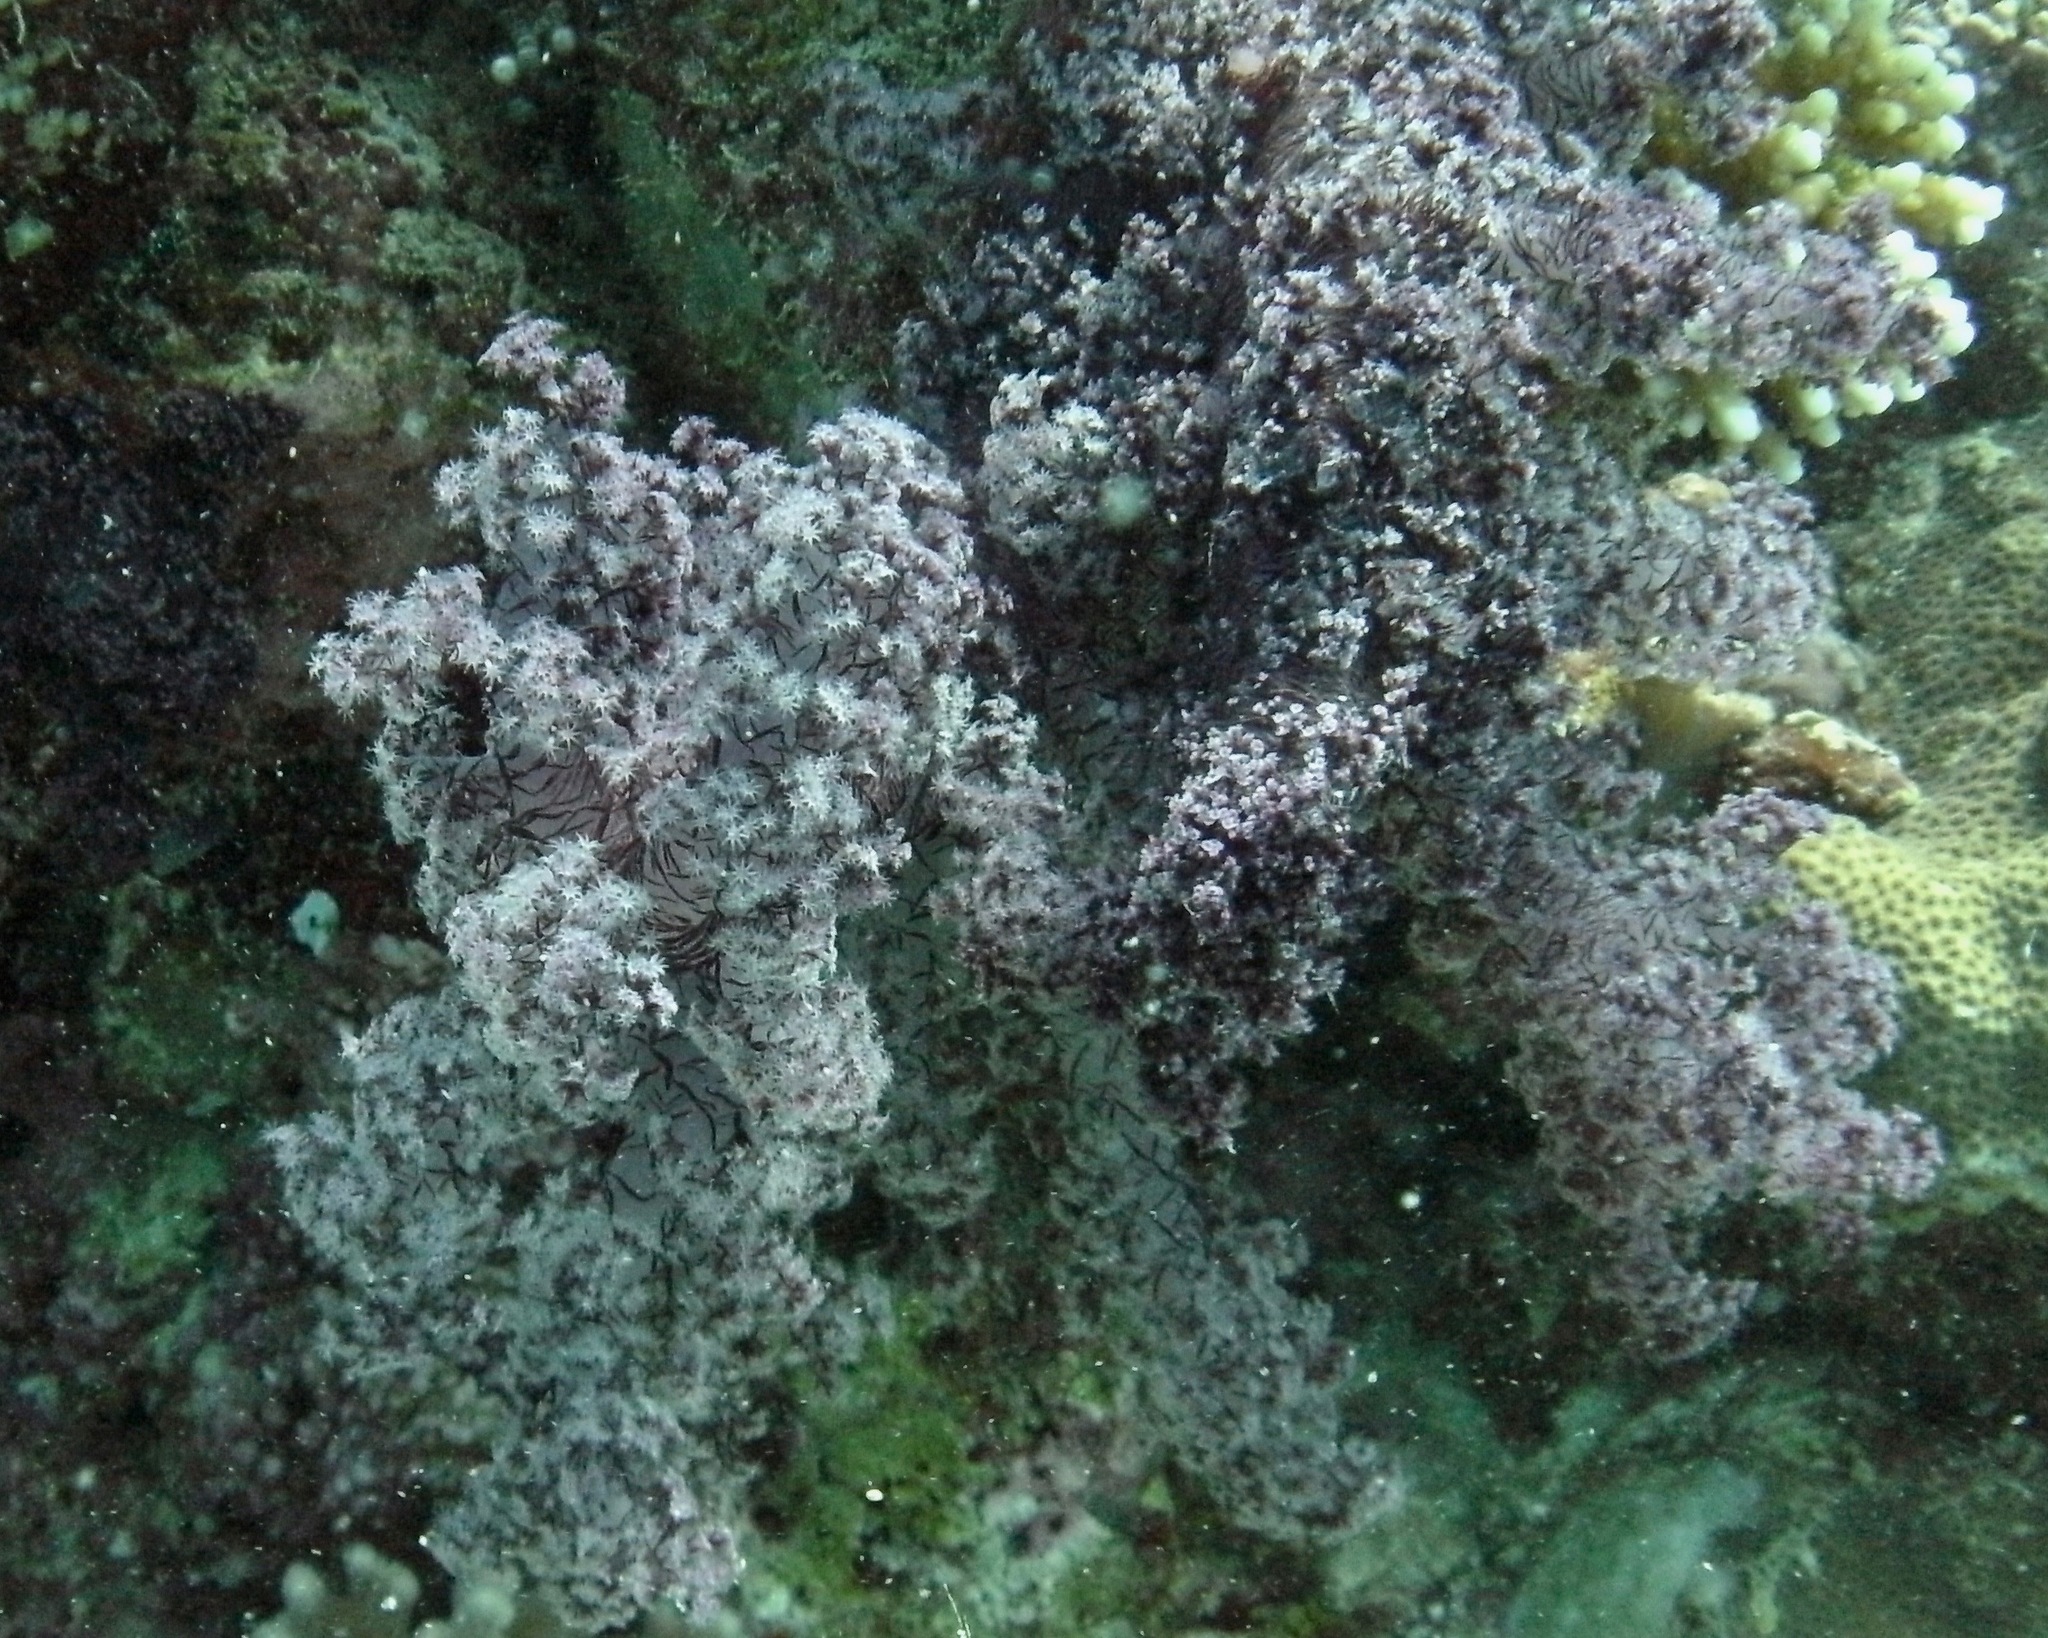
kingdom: Animalia
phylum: Cnidaria
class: Anthozoa
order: Malacalcyonacea
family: Nephtheidae
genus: Dendronephthya
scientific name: Dendronephthya hemprichi
